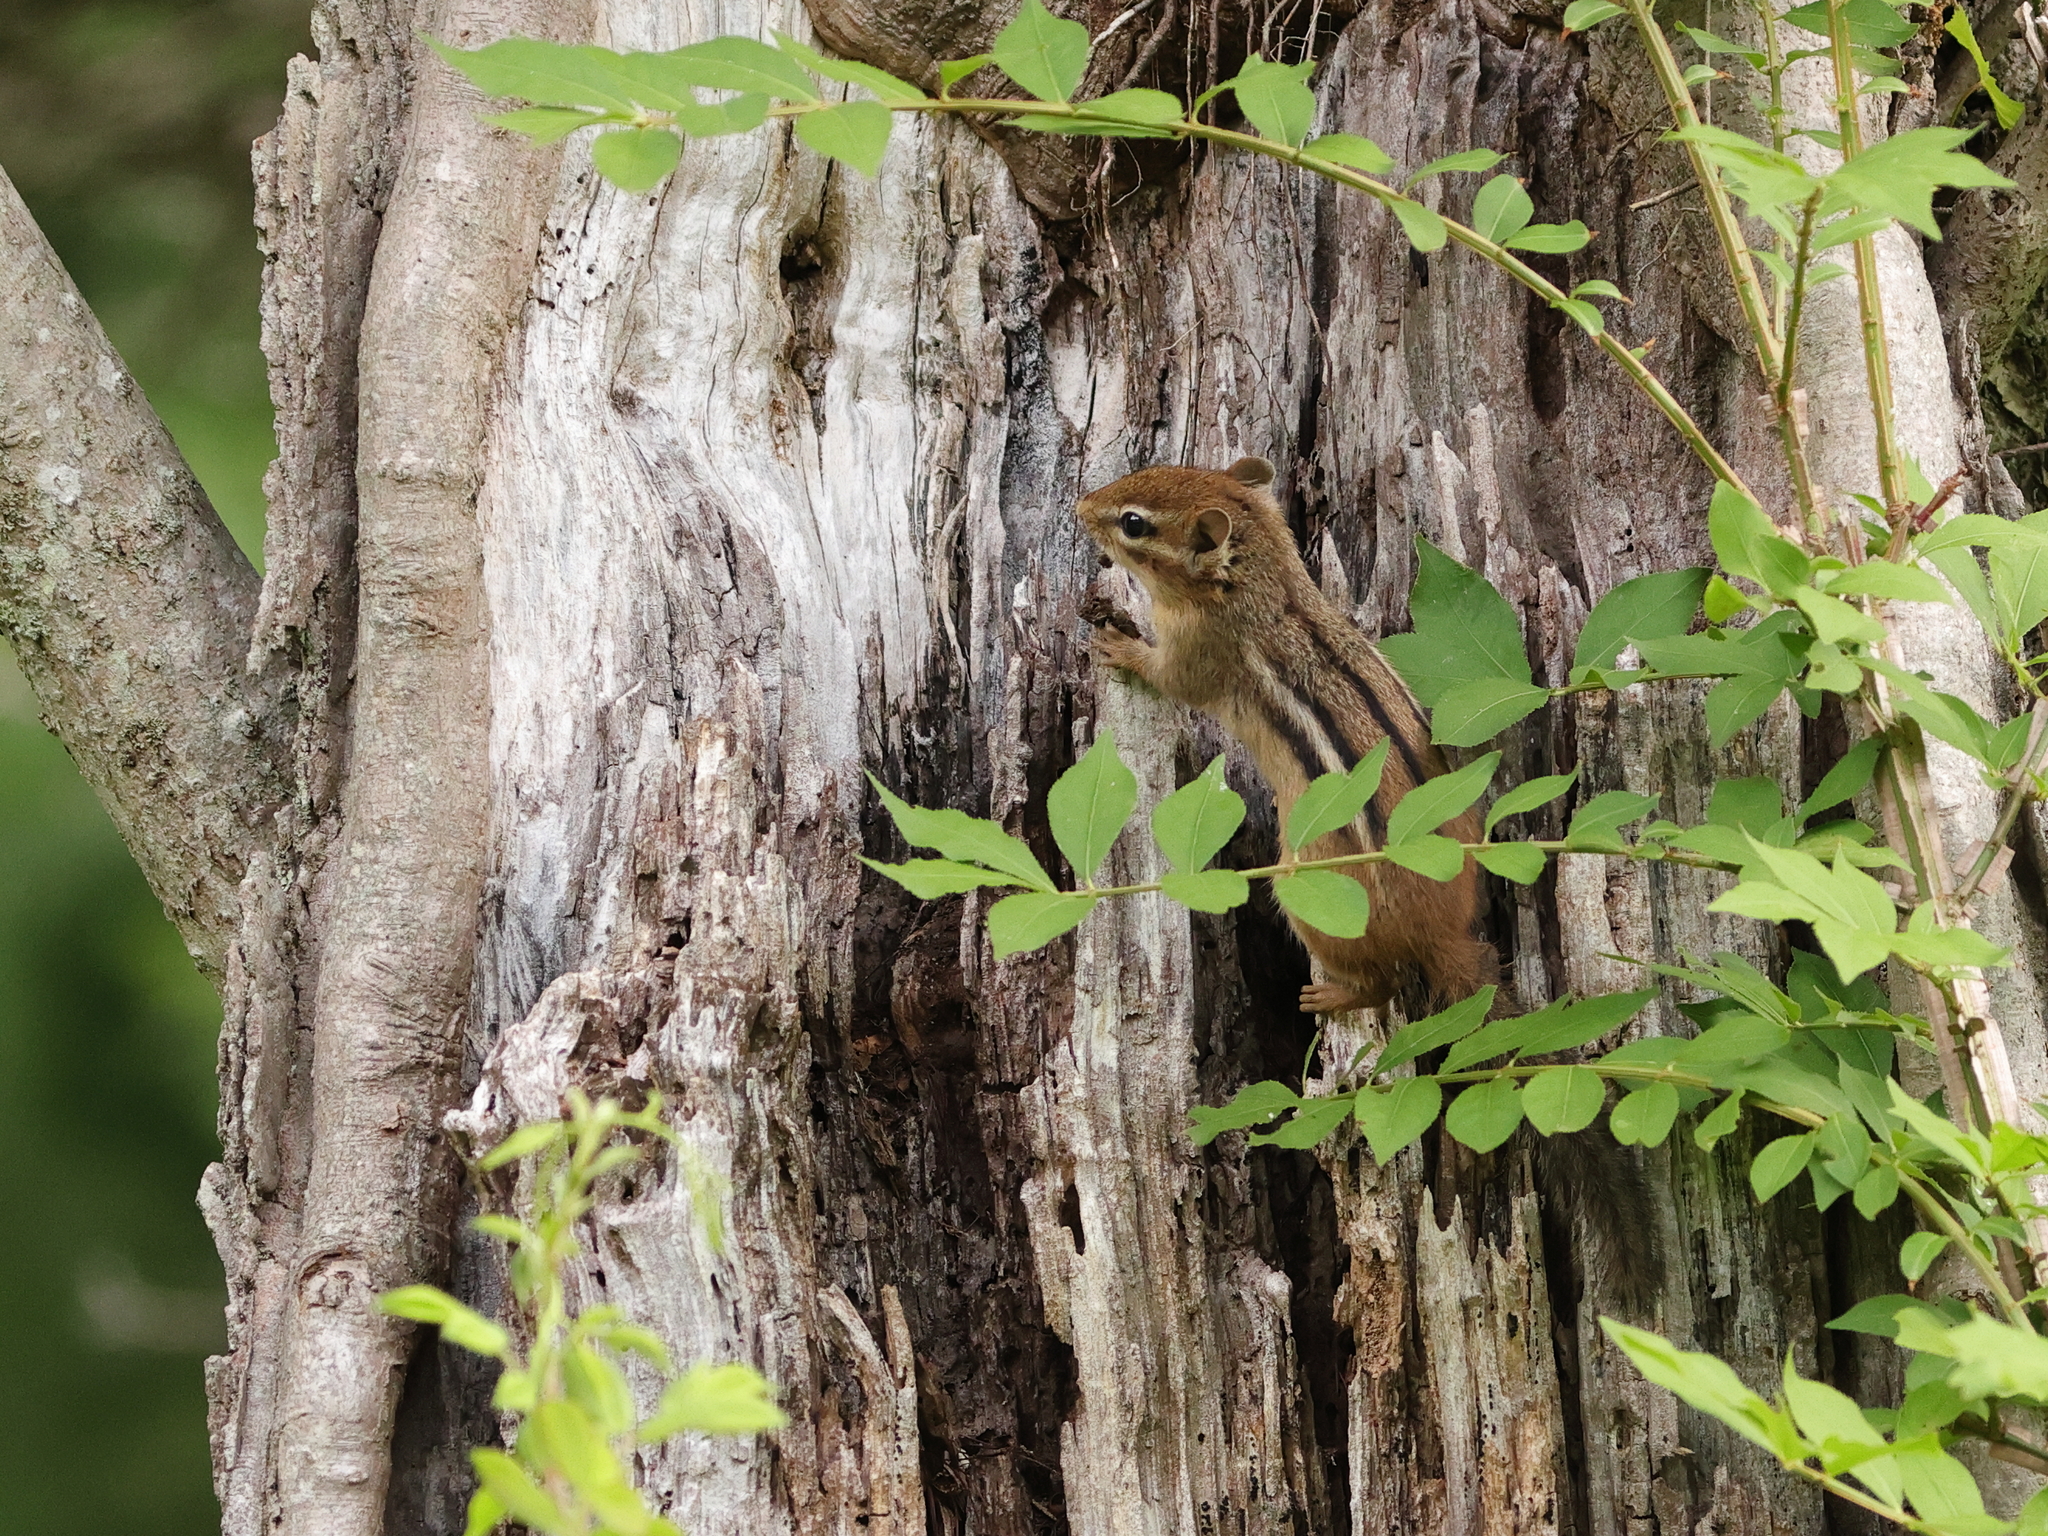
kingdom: Animalia
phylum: Chordata
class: Mammalia
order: Rodentia
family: Sciuridae
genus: Tamias
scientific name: Tamias striatus
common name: Eastern chipmunk
